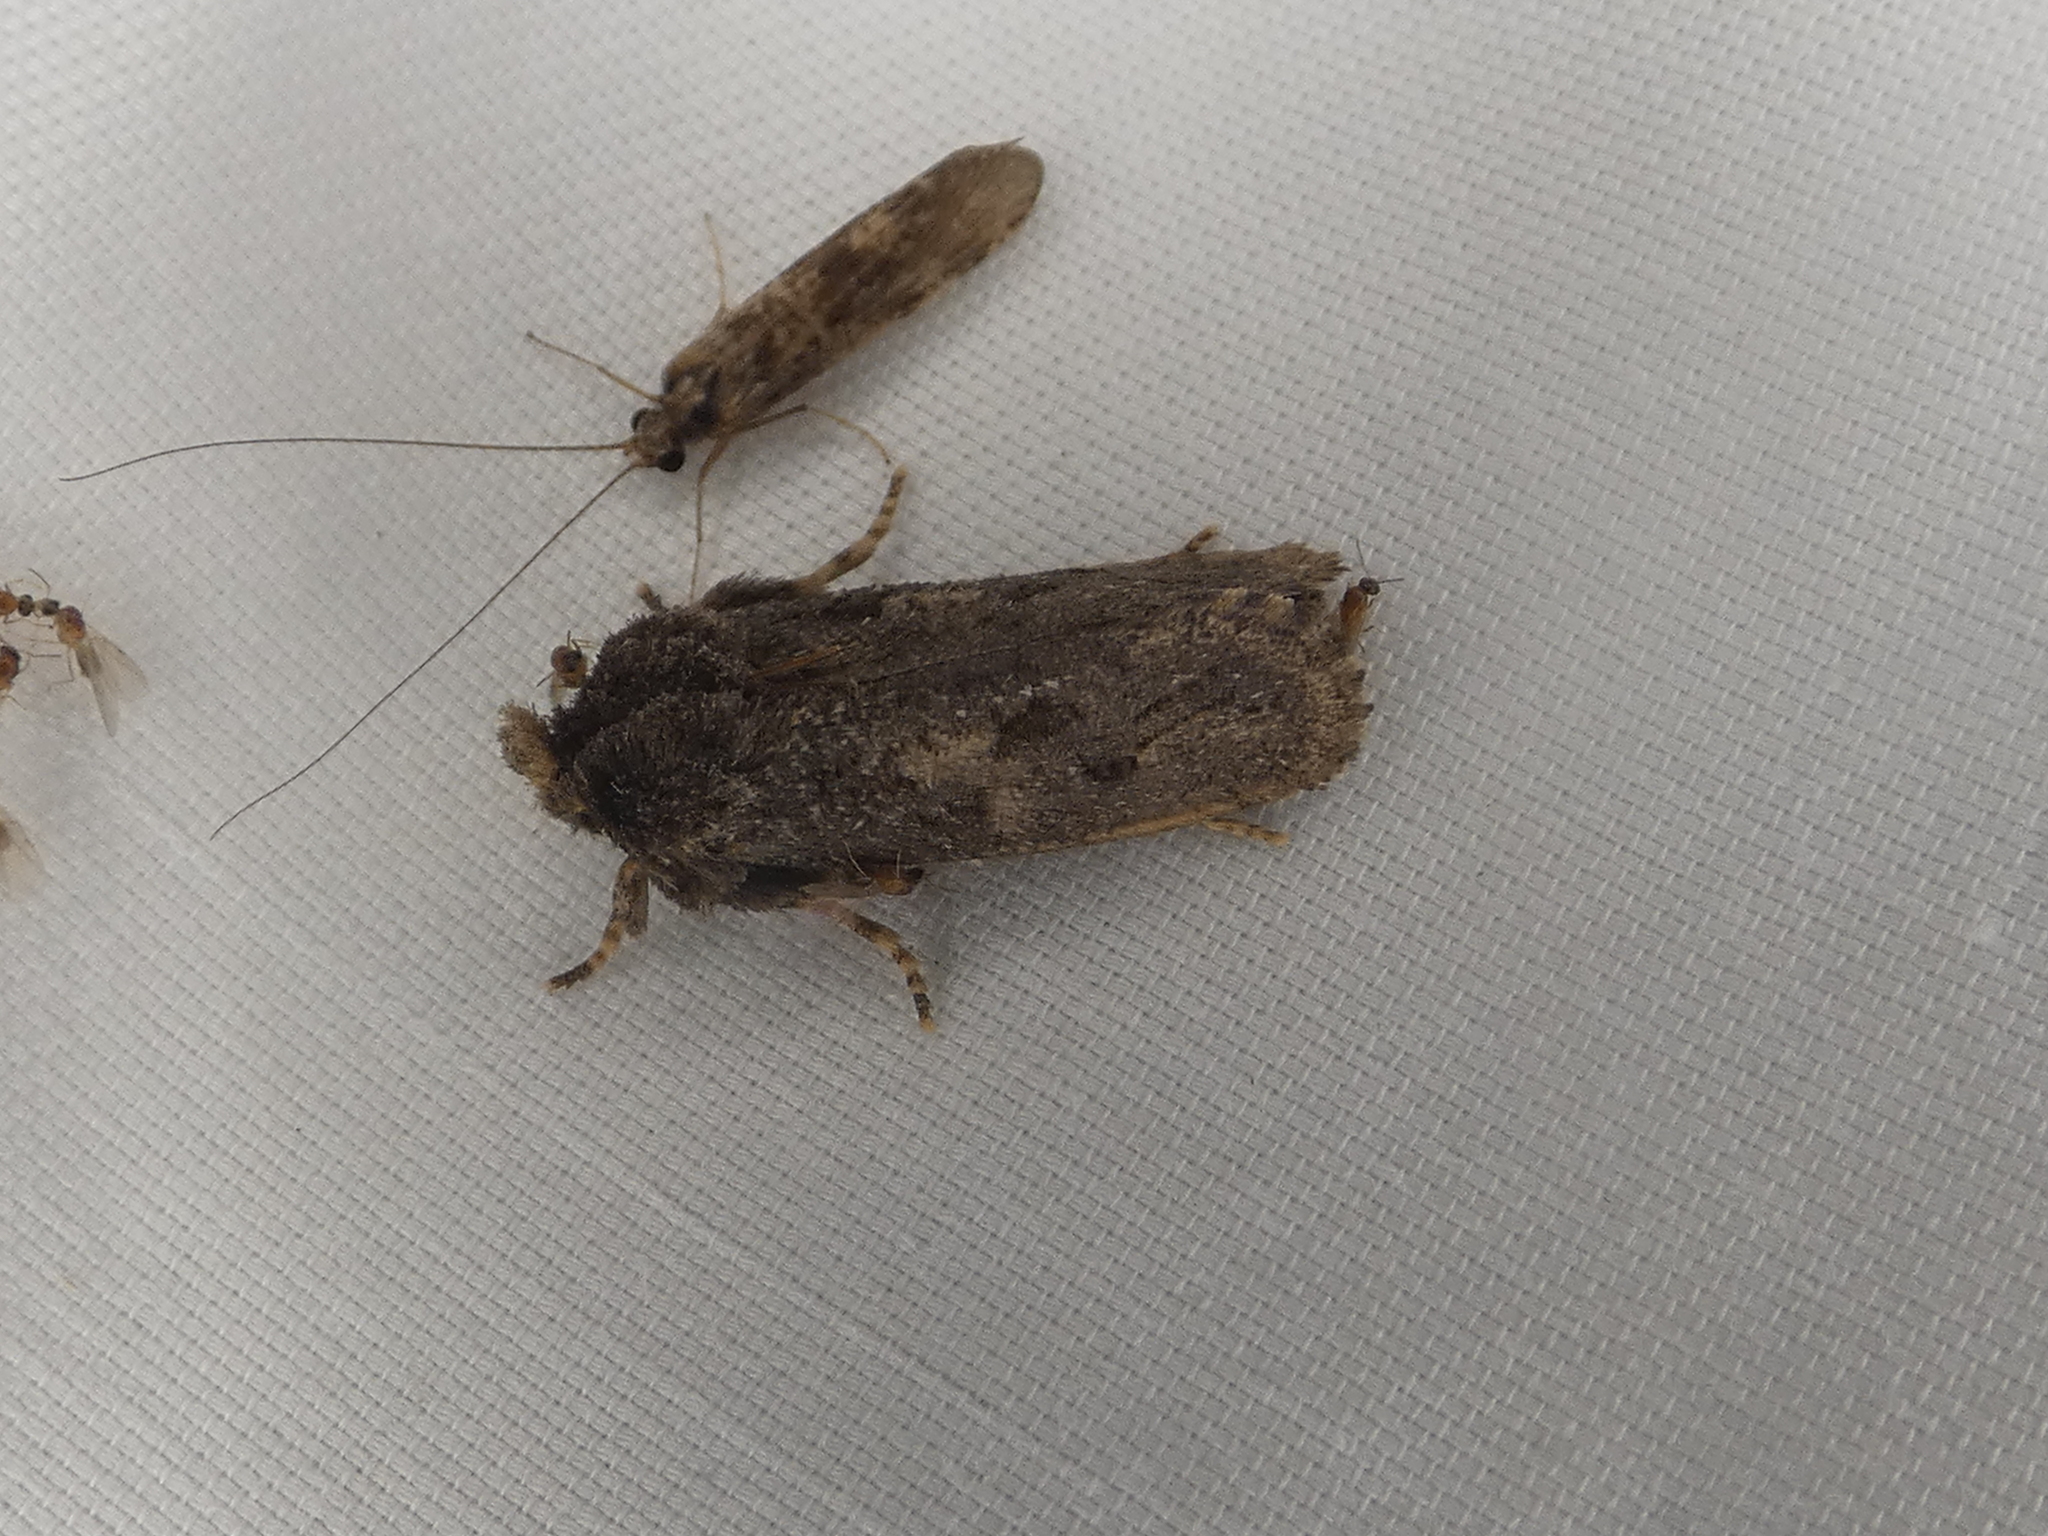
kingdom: Animalia
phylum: Arthropoda
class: Insecta
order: Lepidoptera
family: Tineidae
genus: Acrolophus
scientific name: Acrolophus arcanella
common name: Arcane grass tubeworm moth
